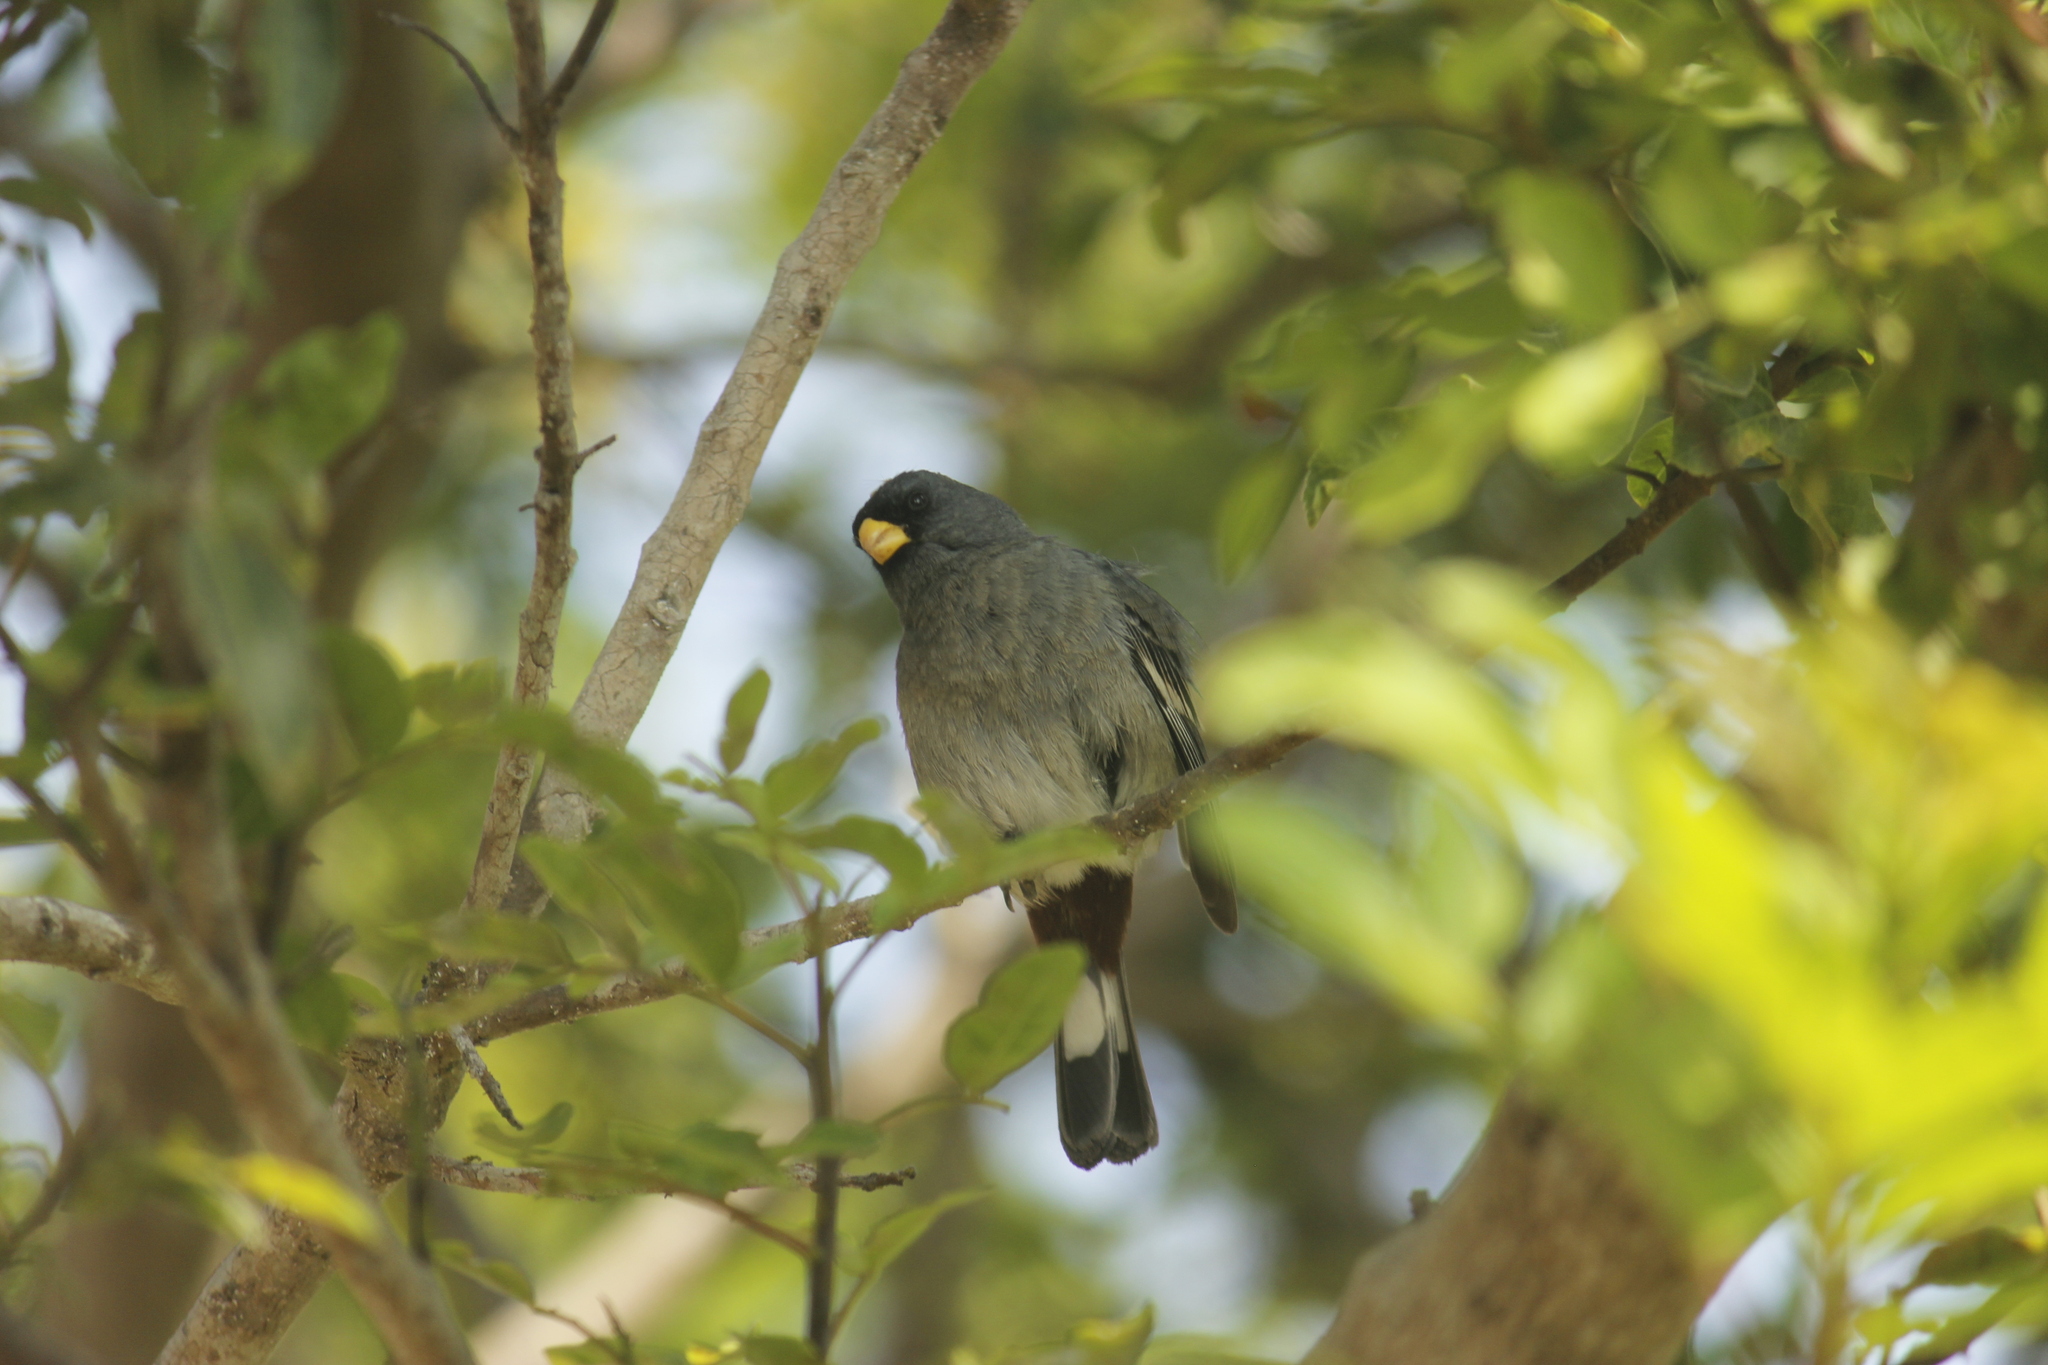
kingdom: Animalia
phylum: Chordata
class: Aves
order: Passeriformes
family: Thraupidae
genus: Catamenia
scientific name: Catamenia analis
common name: Band-tailed seedeater
